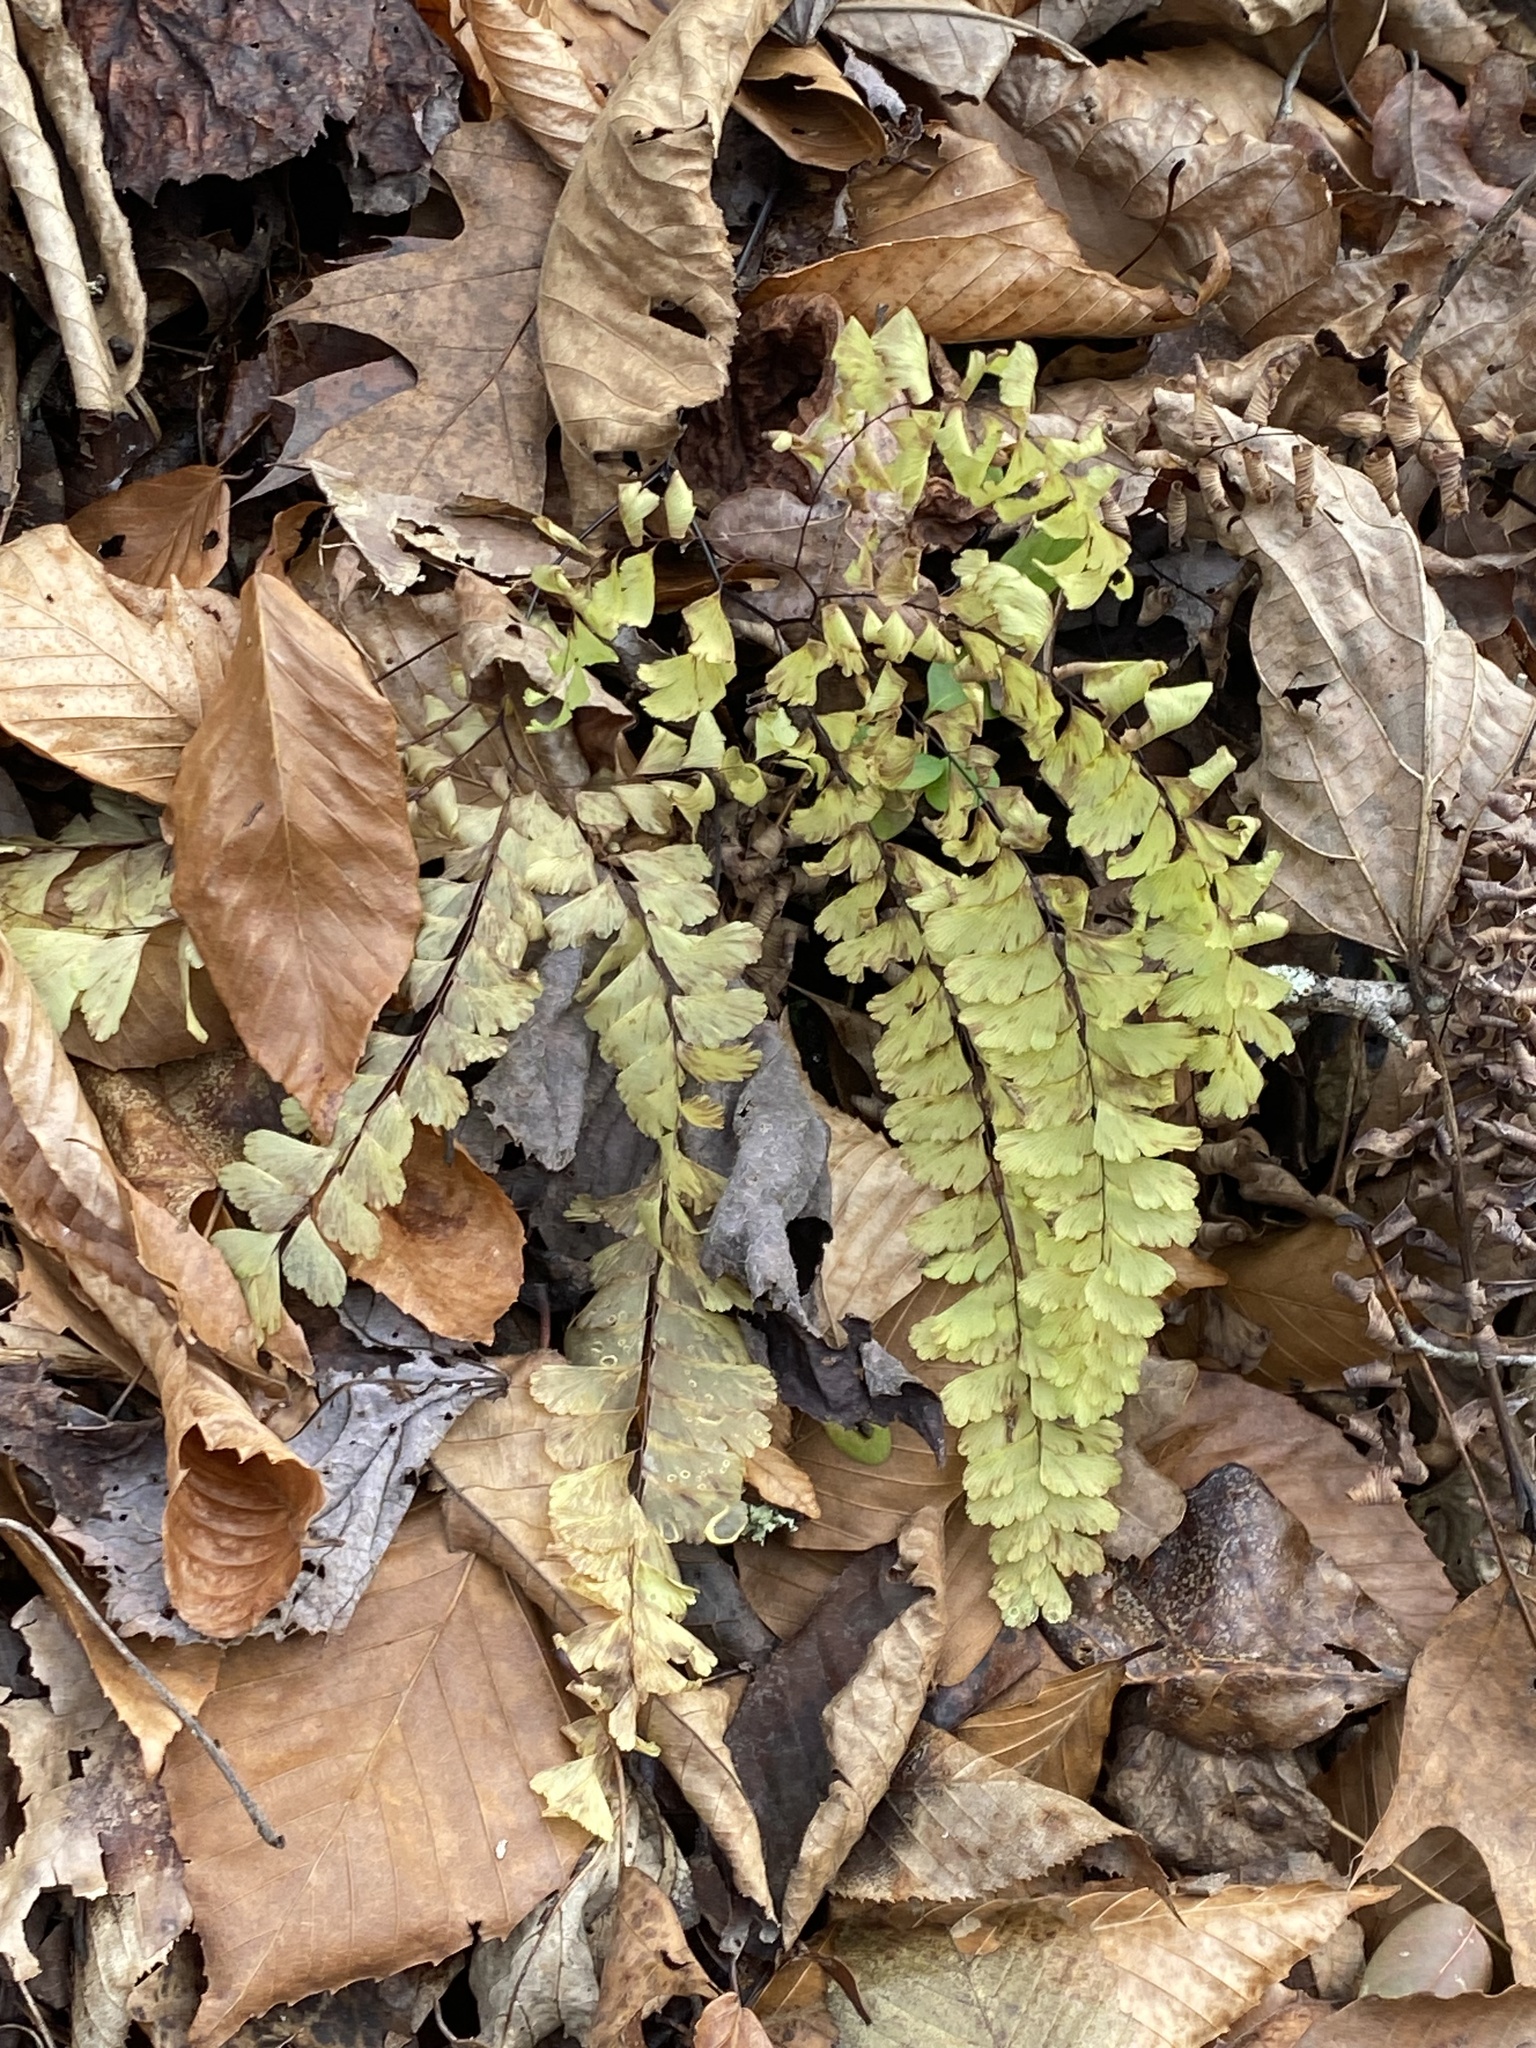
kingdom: Plantae
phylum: Tracheophyta
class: Polypodiopsida
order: Polypodiales
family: Pteridaceae
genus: Adiantum
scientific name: Adiantum pedatum
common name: Five-finger fern
